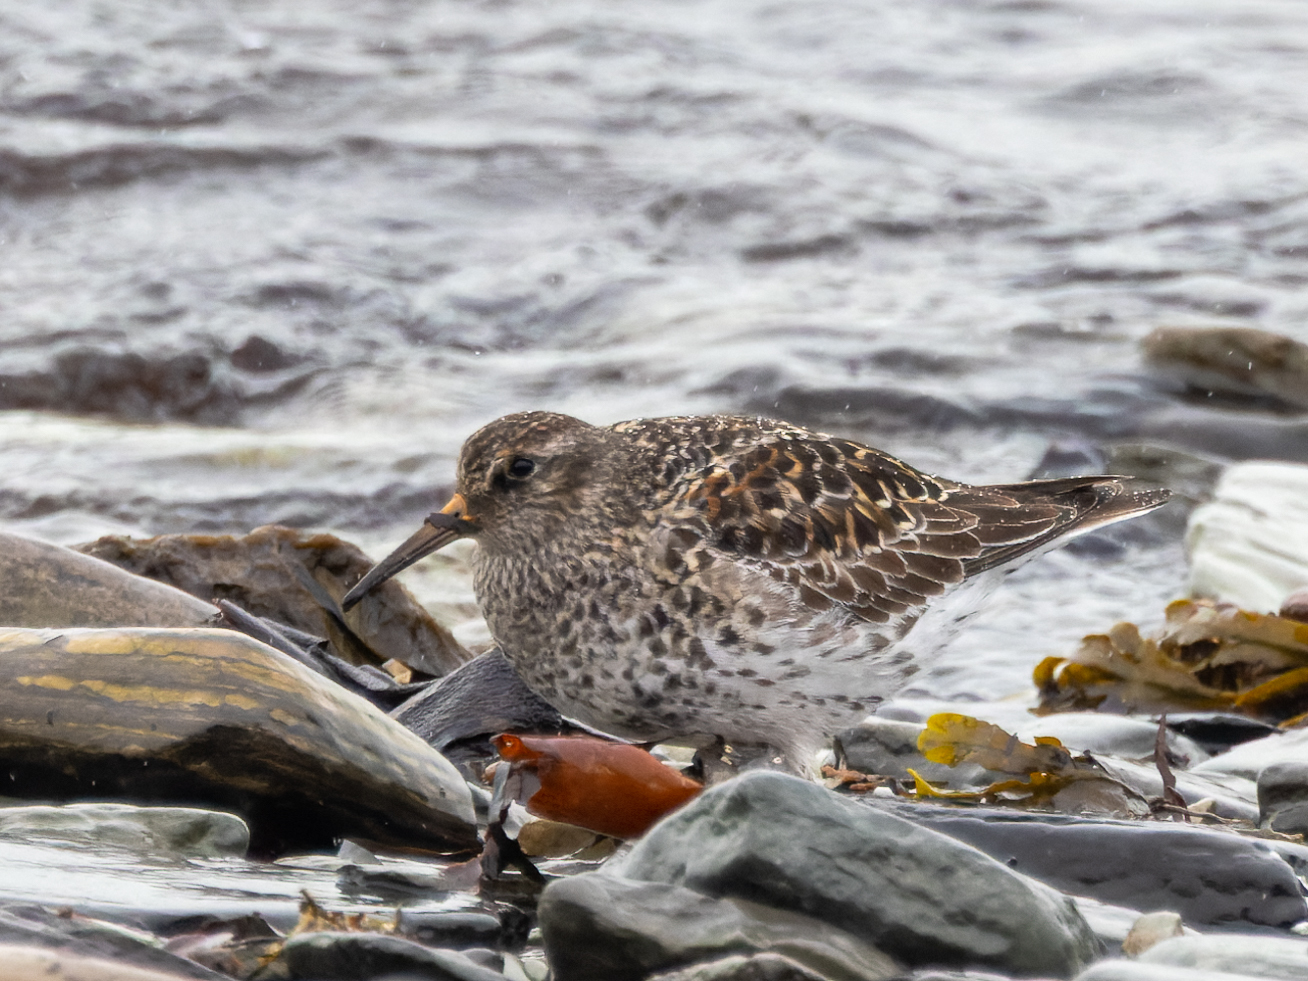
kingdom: Animalia
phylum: Chordata
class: Aves
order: Charadriiformes
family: Scolopacidae
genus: Calidris
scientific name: Calidris maritima
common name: Purple sandpiper
